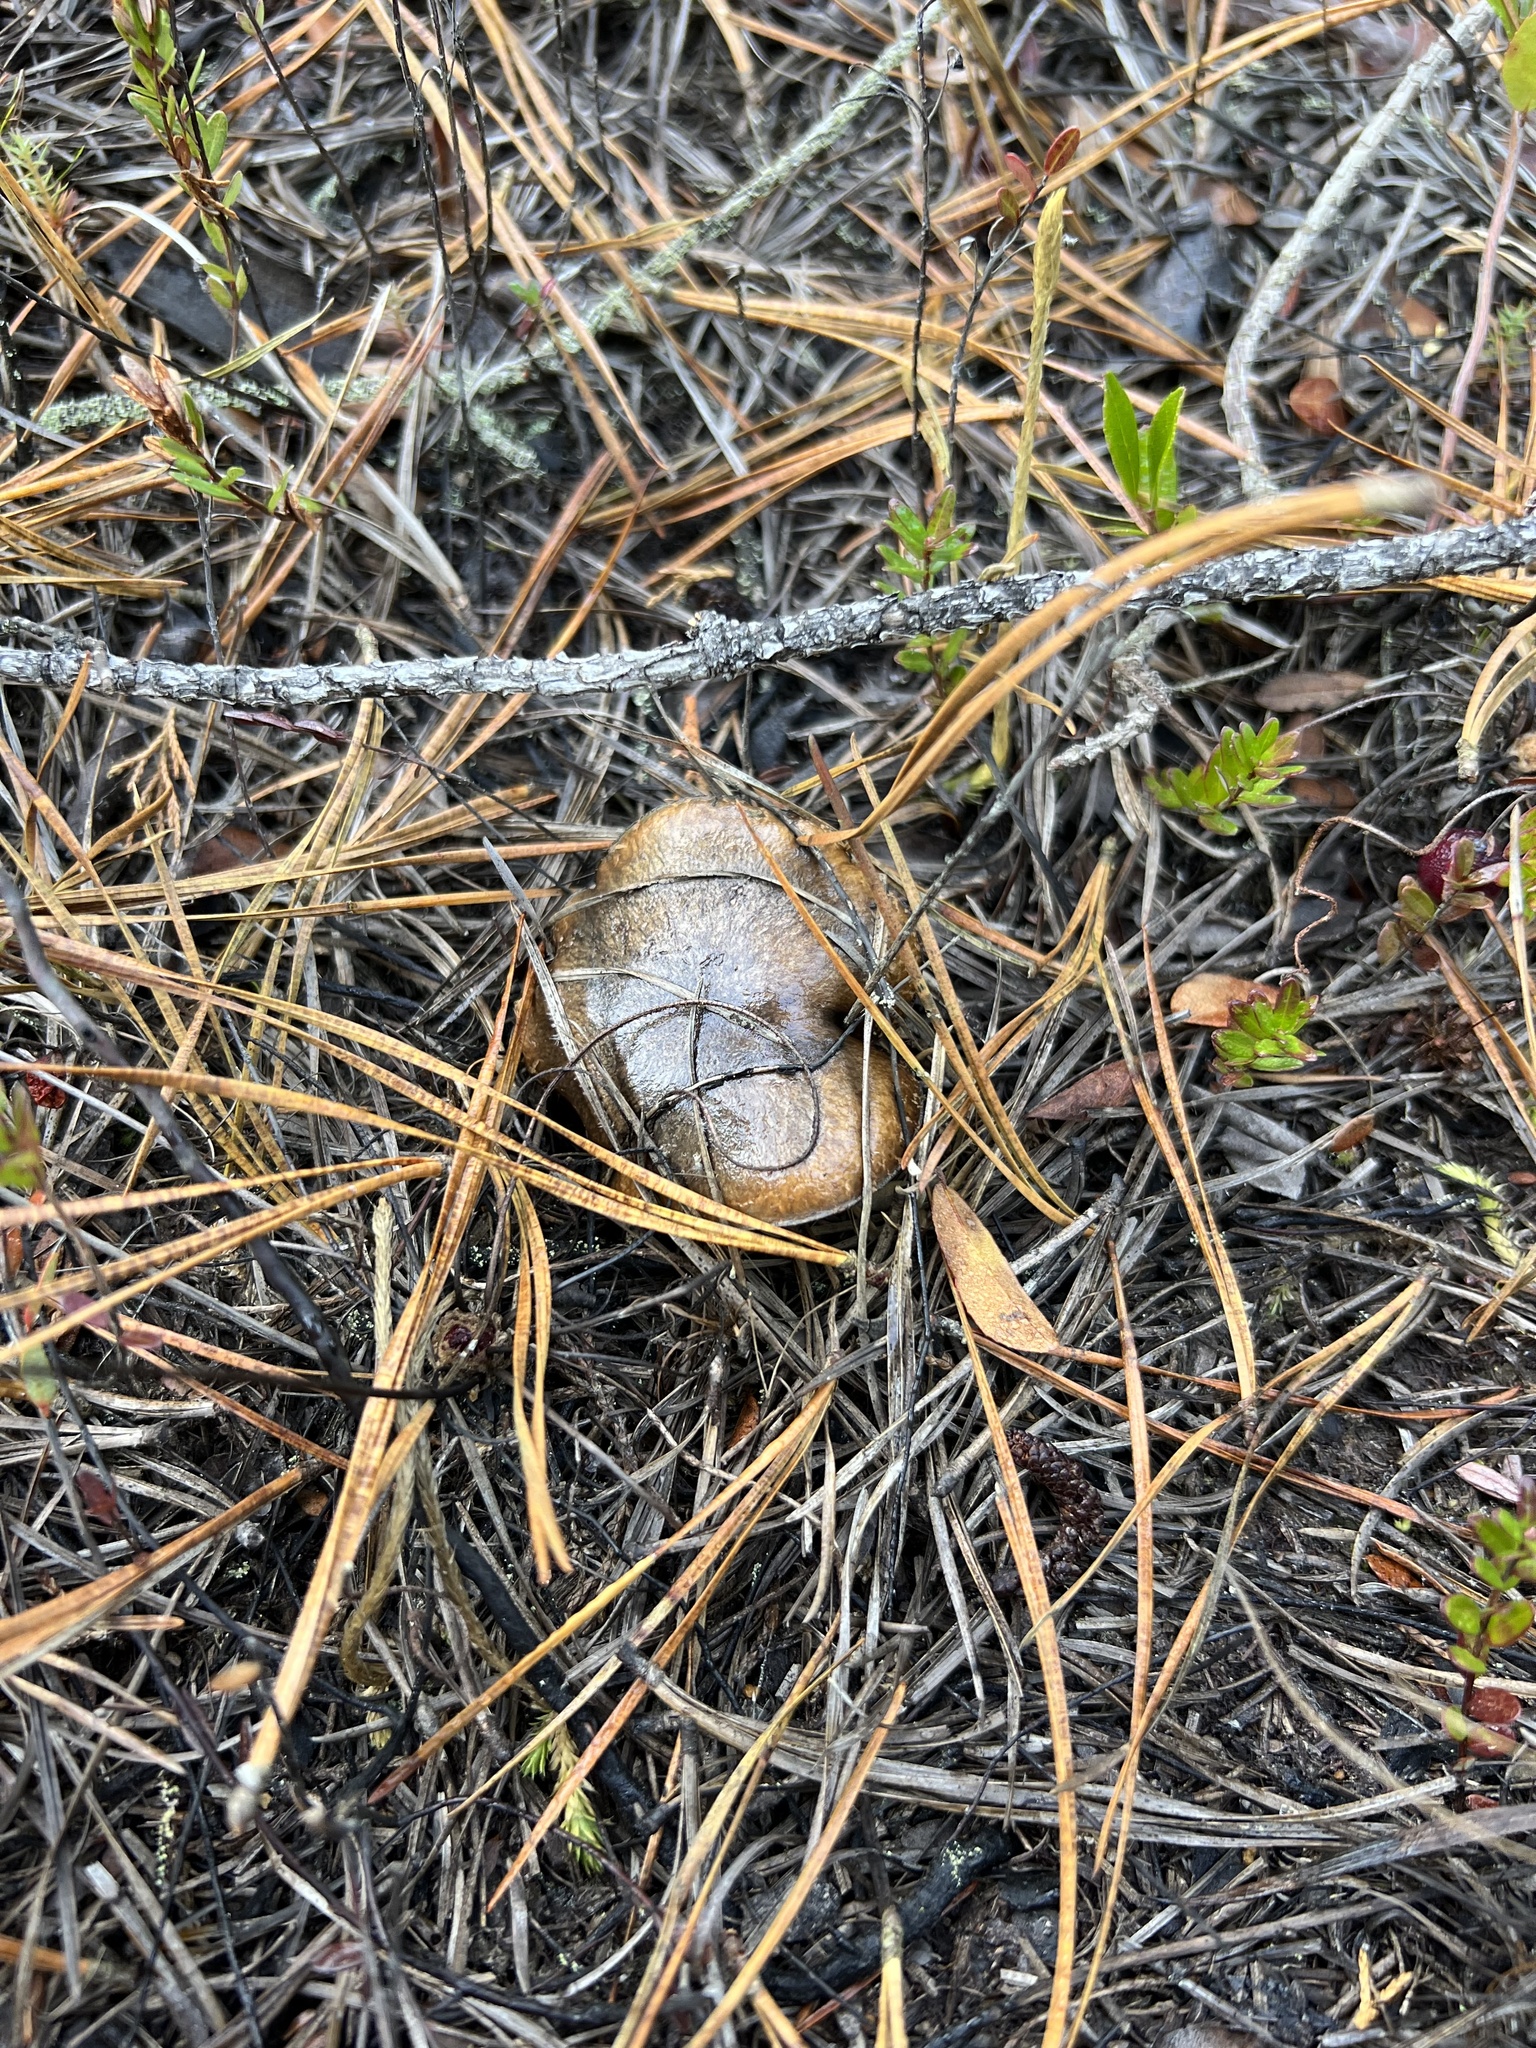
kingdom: Fungi
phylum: Basidiomycota
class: Agaricomycetes
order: Boletales
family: Suillaceae
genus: Suillus
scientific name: Suillus salmonicolor
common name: Slippery jill
